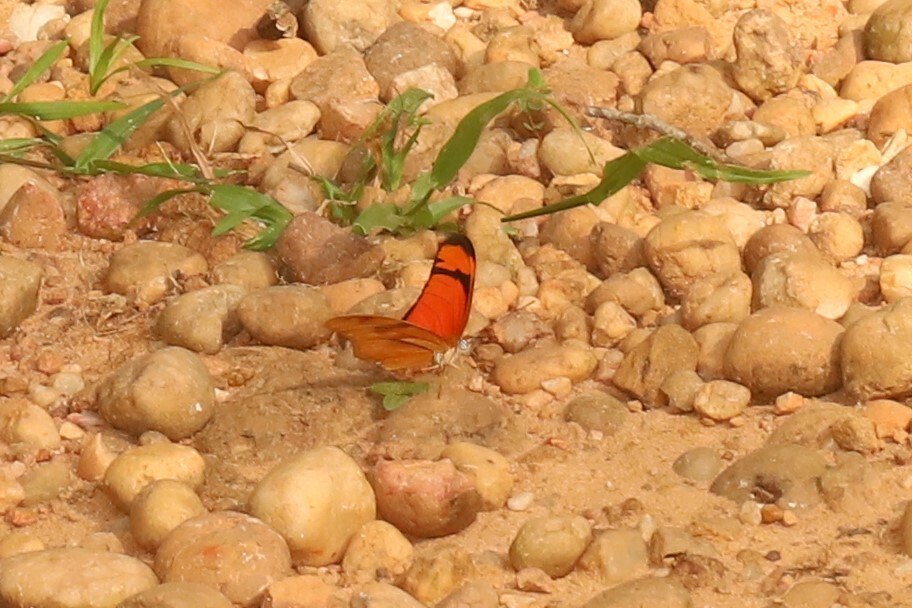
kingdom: Animalia
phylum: Arthropoda
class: Insecta
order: Lepidoptera
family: Nymphalidae
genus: Dryas
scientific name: Dryas iulia
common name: Flambeau
